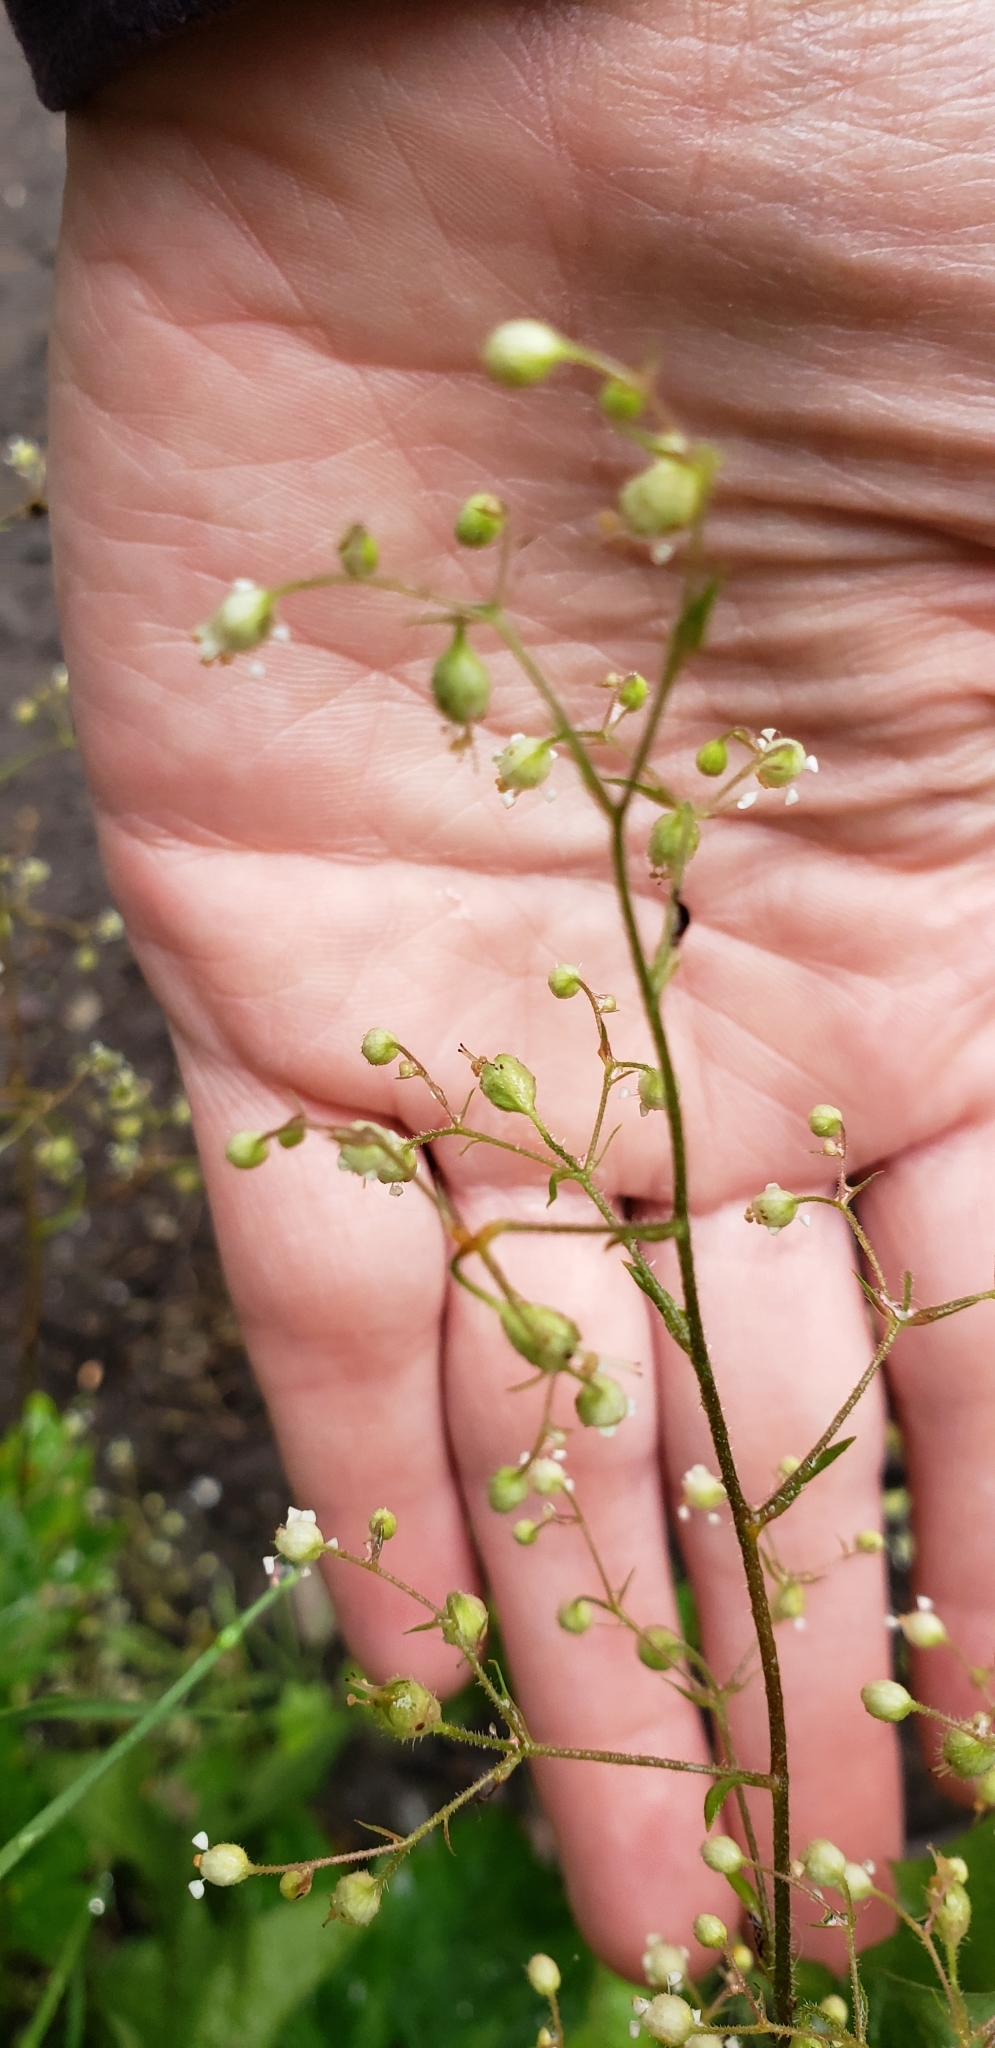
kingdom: Plantae
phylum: Tracheophyta
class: Magnoliopsida
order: Saxifragales
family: Saxifragaceae
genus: Heuchera
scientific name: Heuchera glabra
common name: Alpine alumroot
